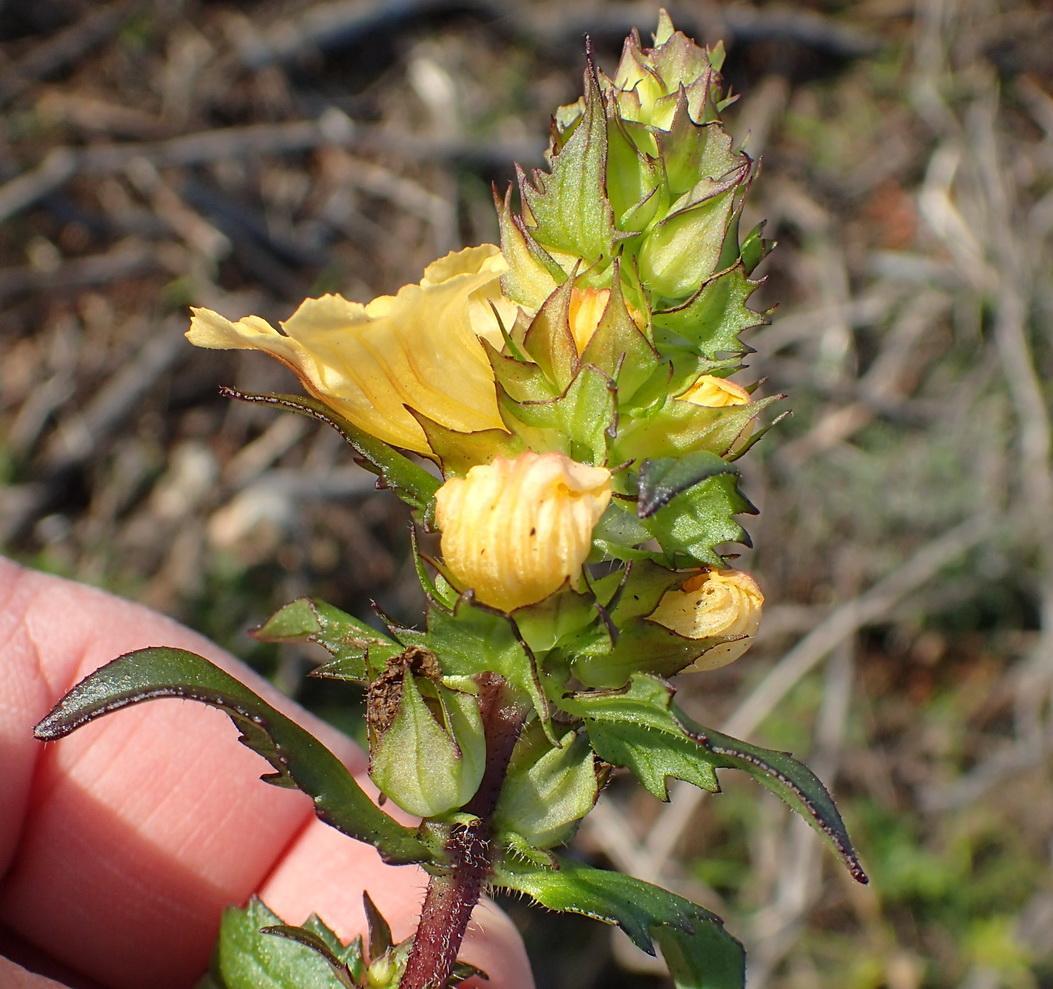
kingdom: Plantae
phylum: Tracheophyta
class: Magnoliopsida
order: Lamiales
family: Orobanchaceae
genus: Alectra
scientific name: Alectra sessiliflora
